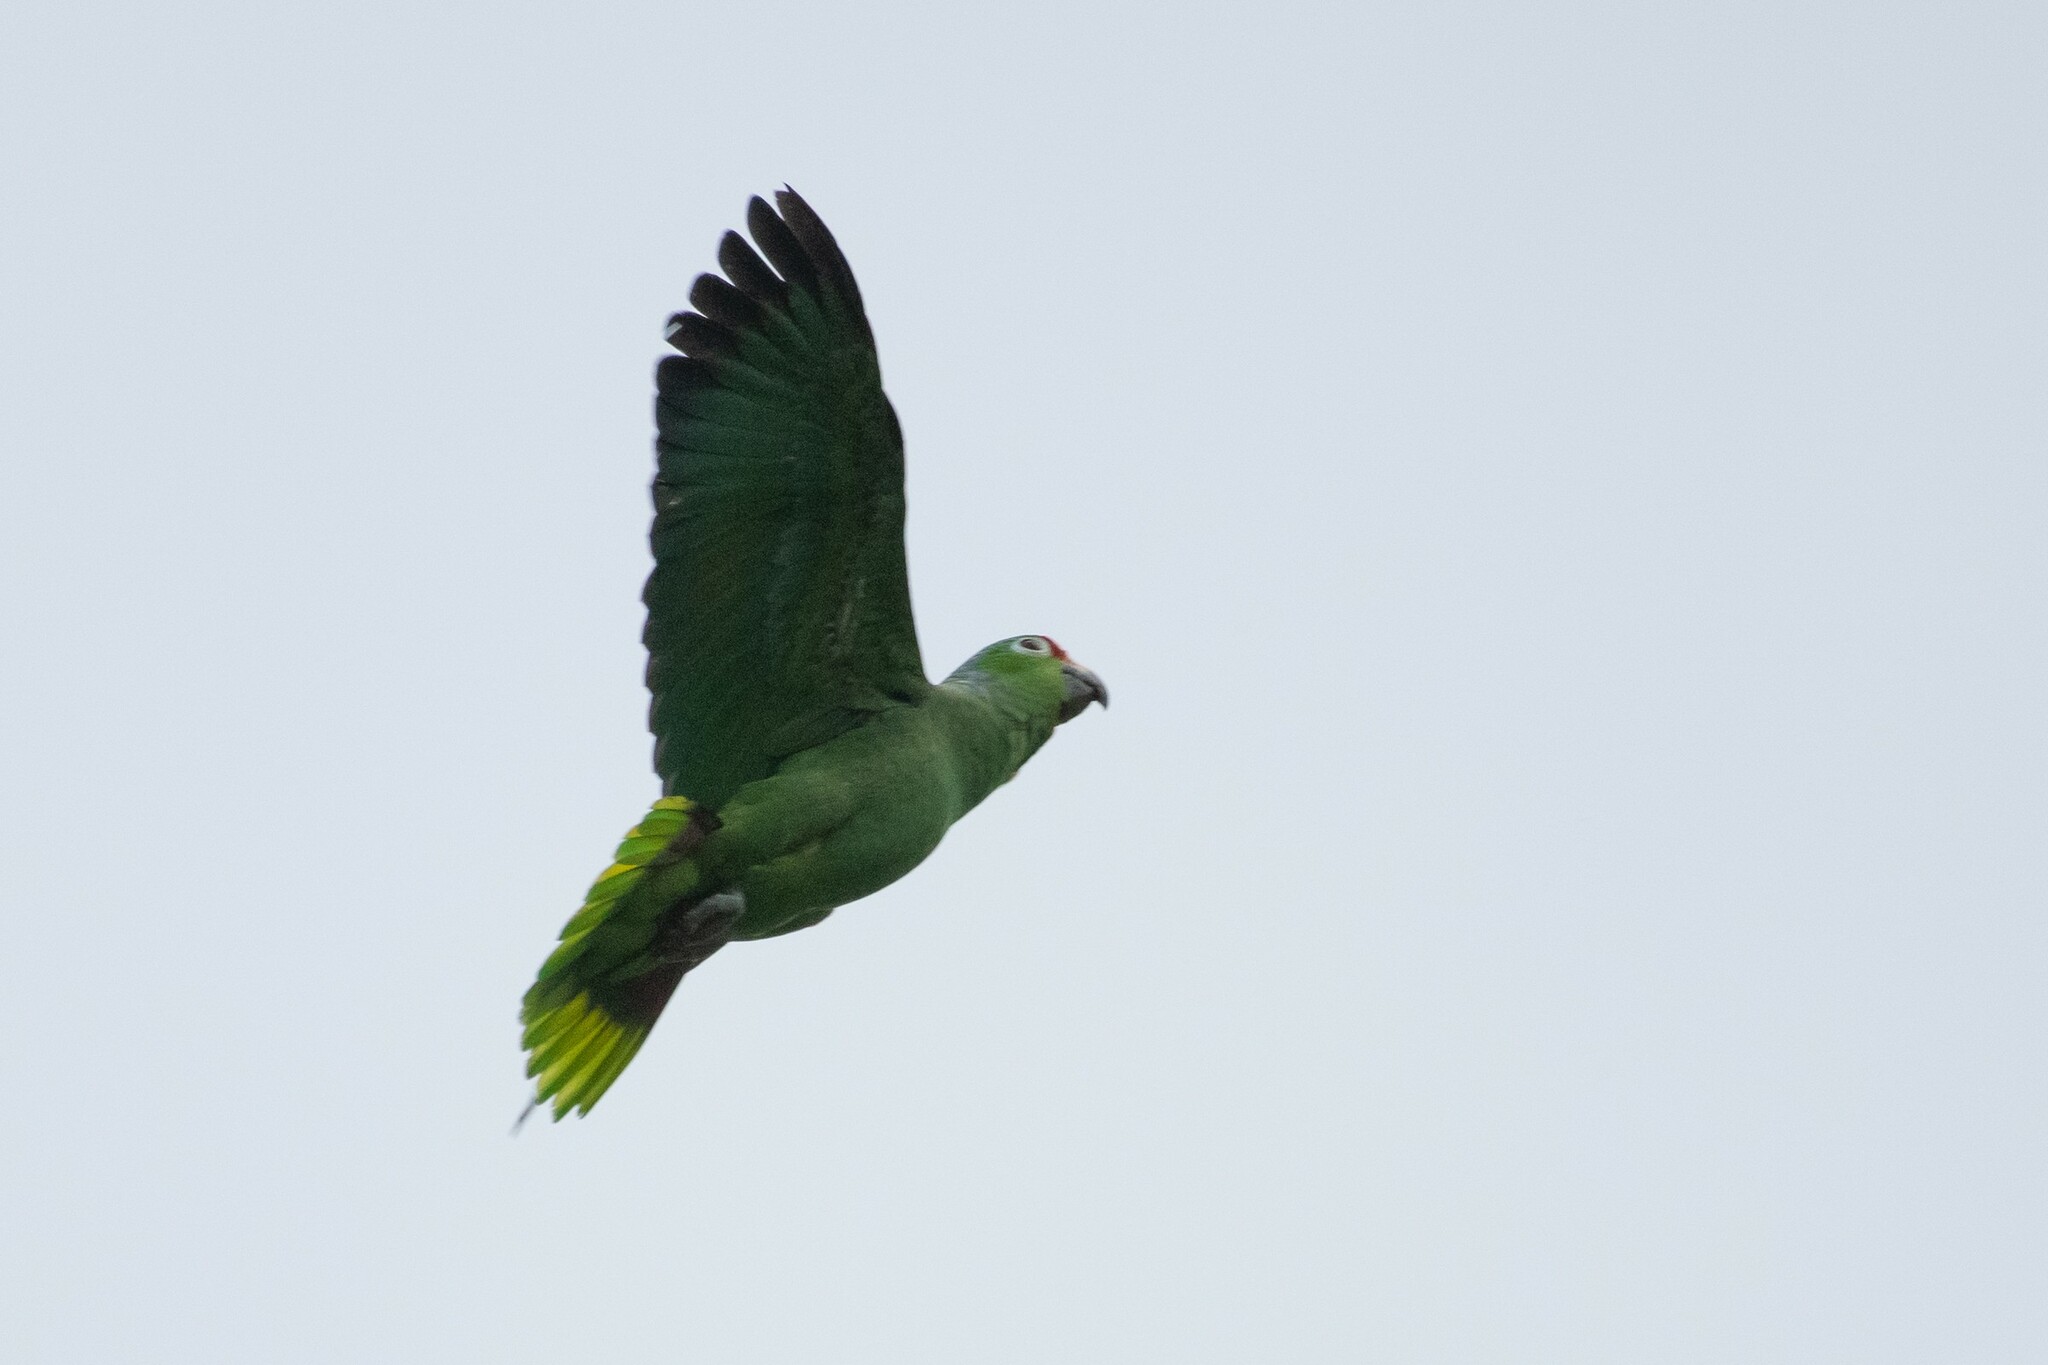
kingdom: Animalia
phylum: Chordata
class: Aves
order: Psittaciformes
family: Psittacidae
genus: Amazona
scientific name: Amazona autumnalis
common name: Red-lored amazon
